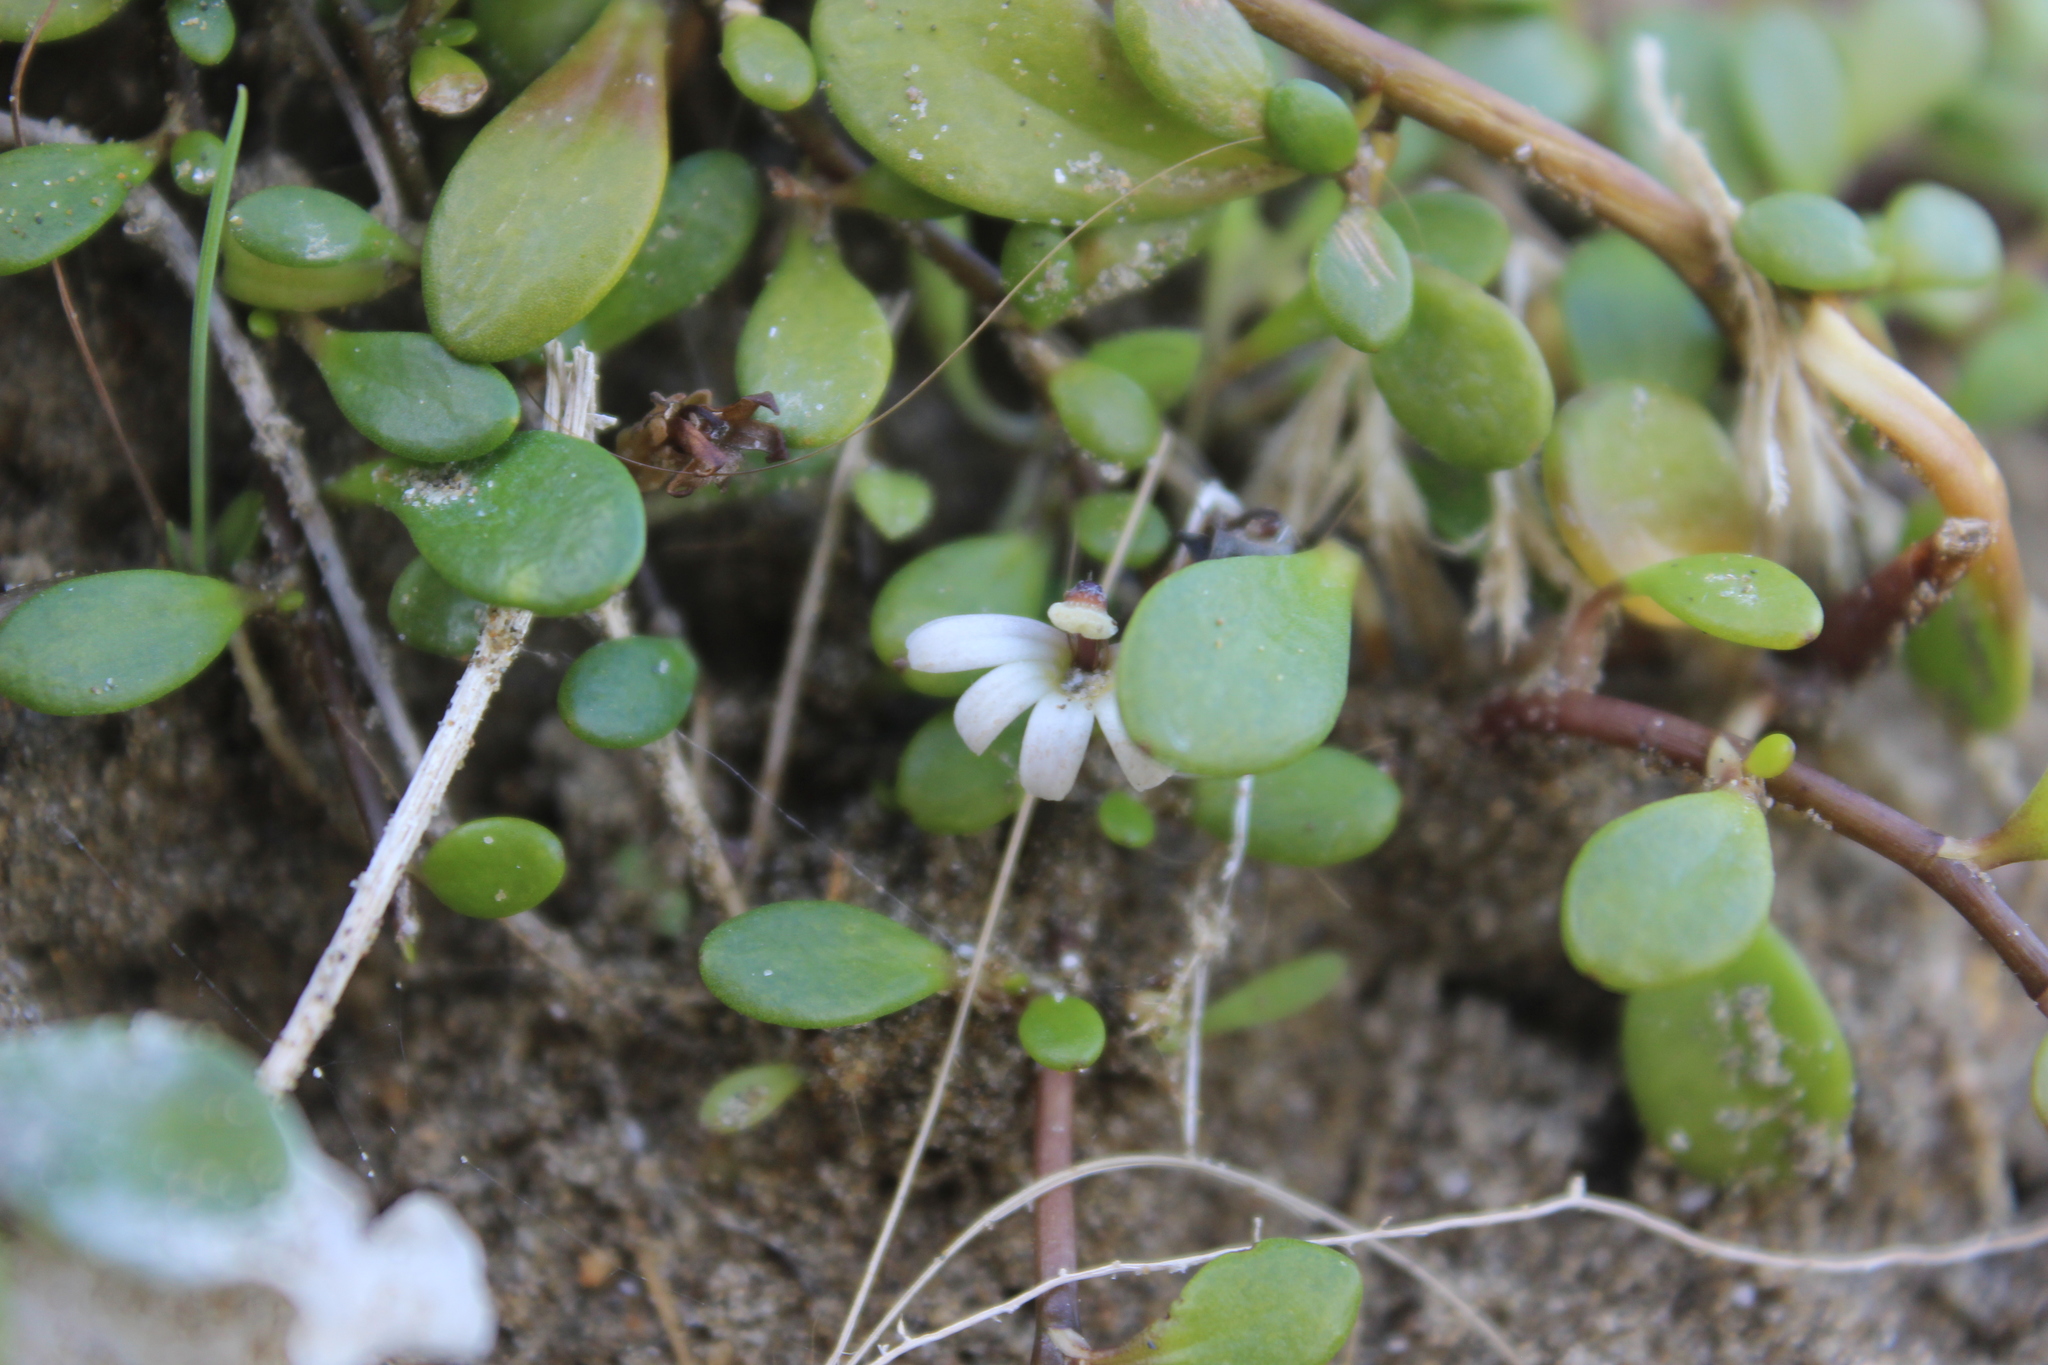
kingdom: Plantae
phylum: Tracheophyta
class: Magnoliopsida
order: Asterales
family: Goodeniaceae
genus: Goodenia
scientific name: Goodenia radicans
